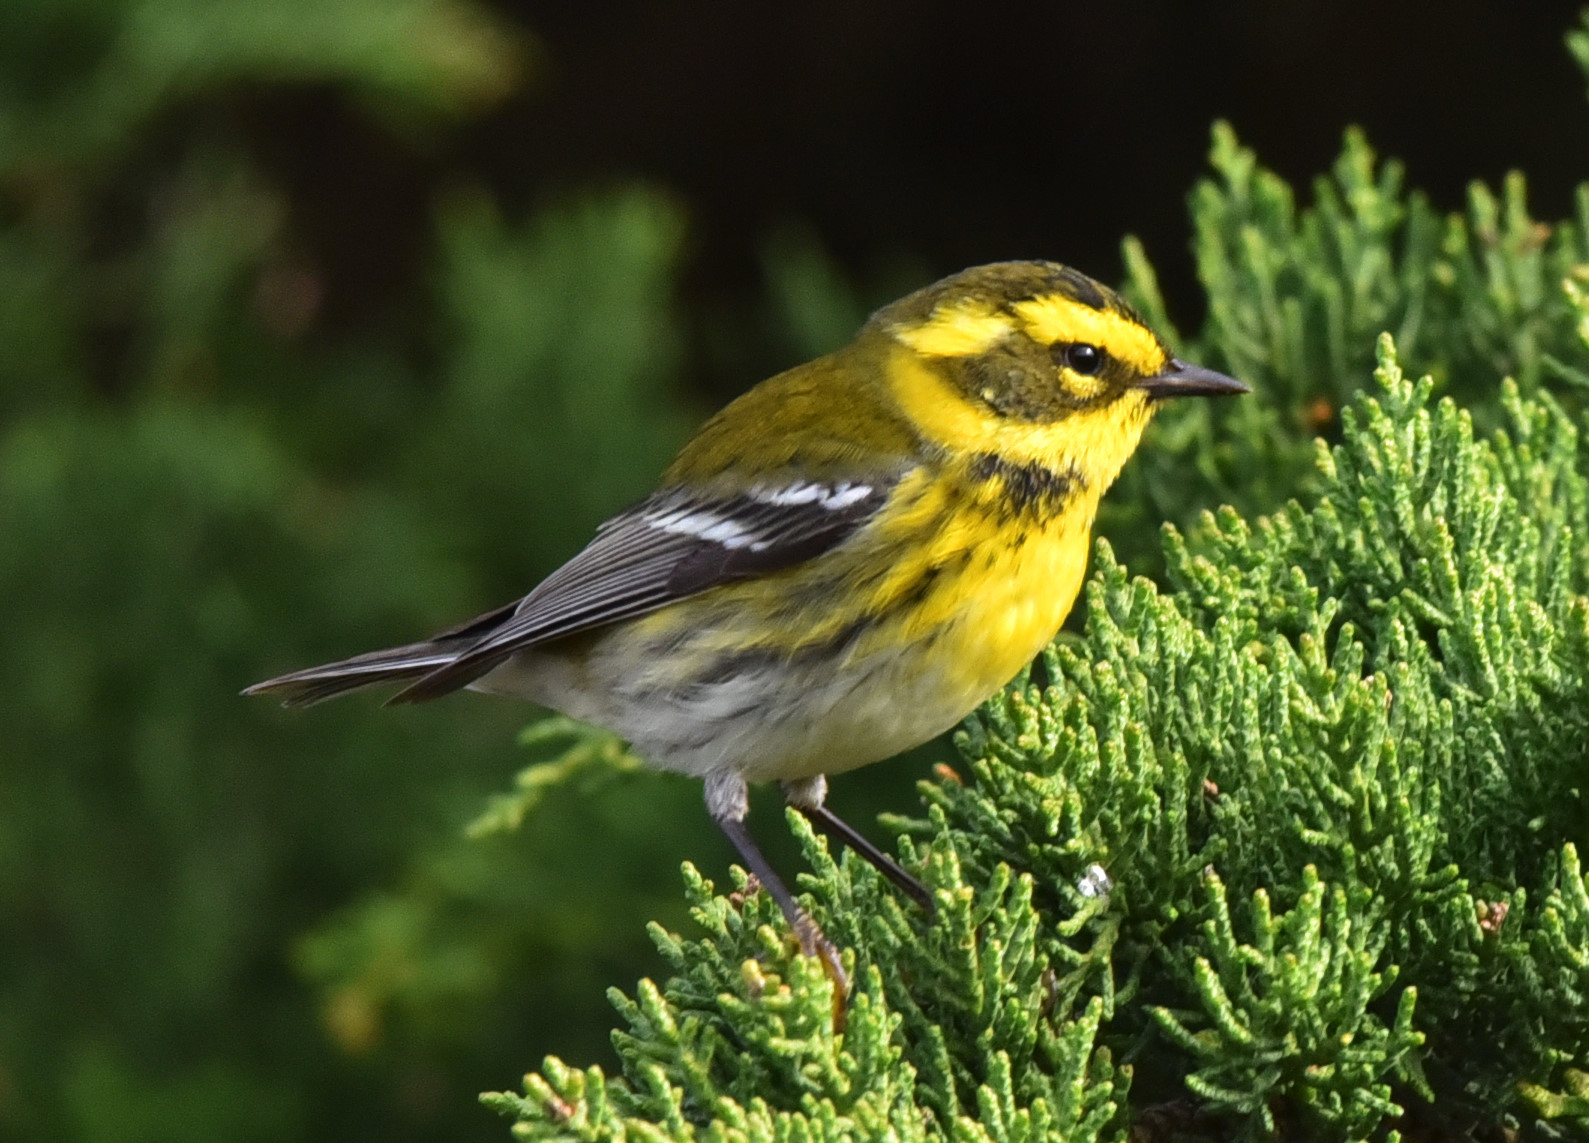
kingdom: Animalia
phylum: Chordata
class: Aves
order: Passeriformes
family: Parulidae
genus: Setophaga
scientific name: Setophaga townsendi
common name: Townsend's warbler
